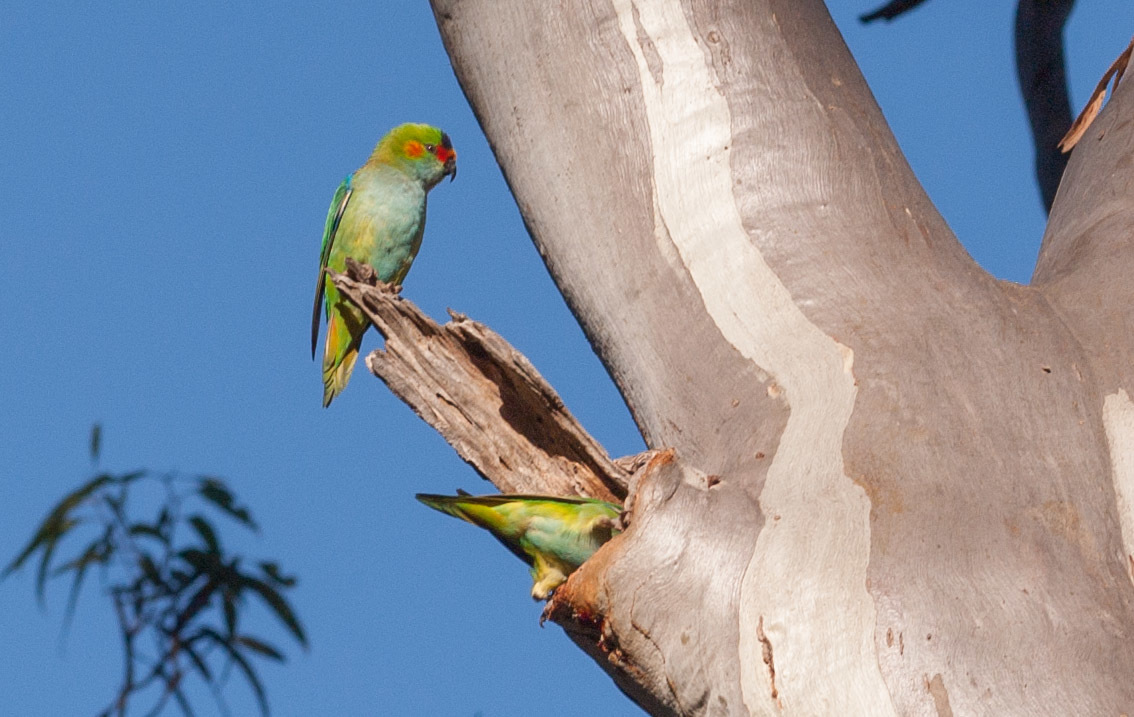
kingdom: Animalia
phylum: Chordata
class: Aves
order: Psittaciformes
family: Psittaculidae
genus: Parvipsitta
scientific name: Parvipsitta porphyrocephala
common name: Purple-crowned lorikeet
